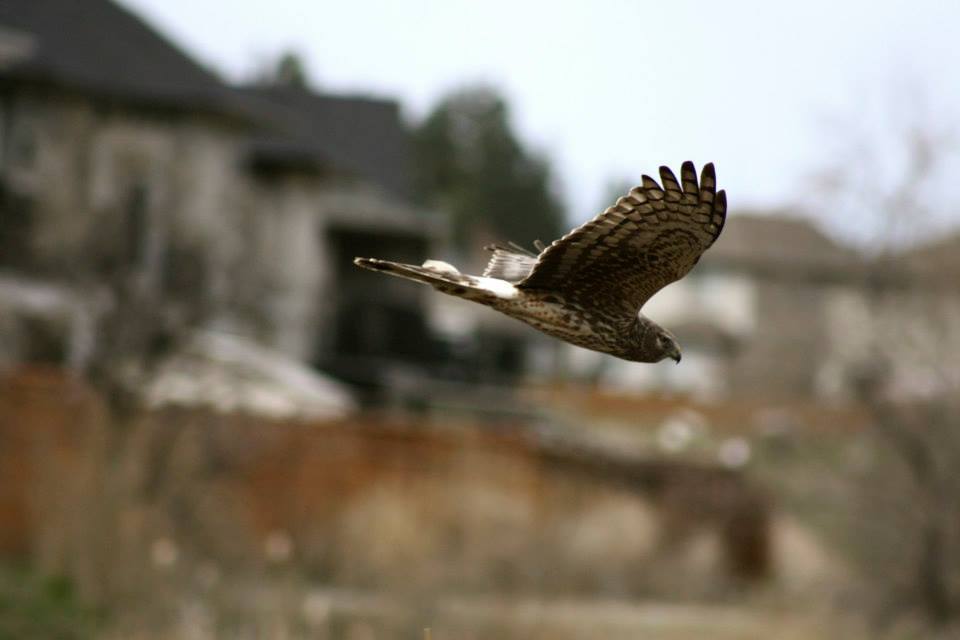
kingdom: Animalia
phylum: Chordata
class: Aves
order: Accipitriformes
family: Accipitridae
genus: Circus
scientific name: Circus cyaneus
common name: Hen harrier
